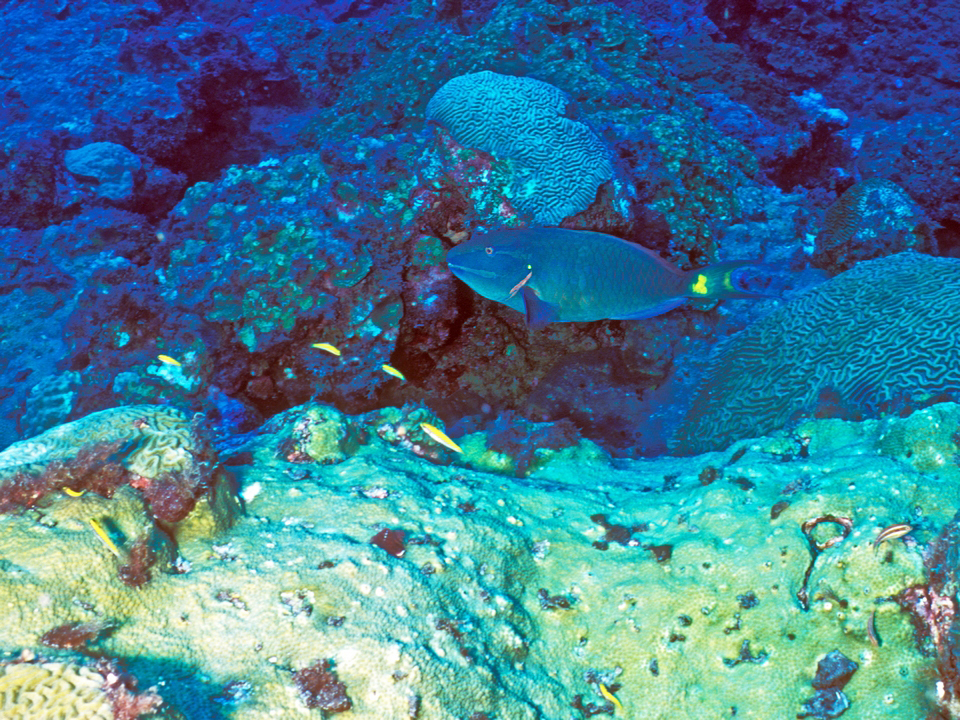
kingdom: Animalia
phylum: Chordata
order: Perciformes
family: Scaridae
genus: Sparisoma
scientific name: Sparisoma viride
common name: Stoplight parrotfish
